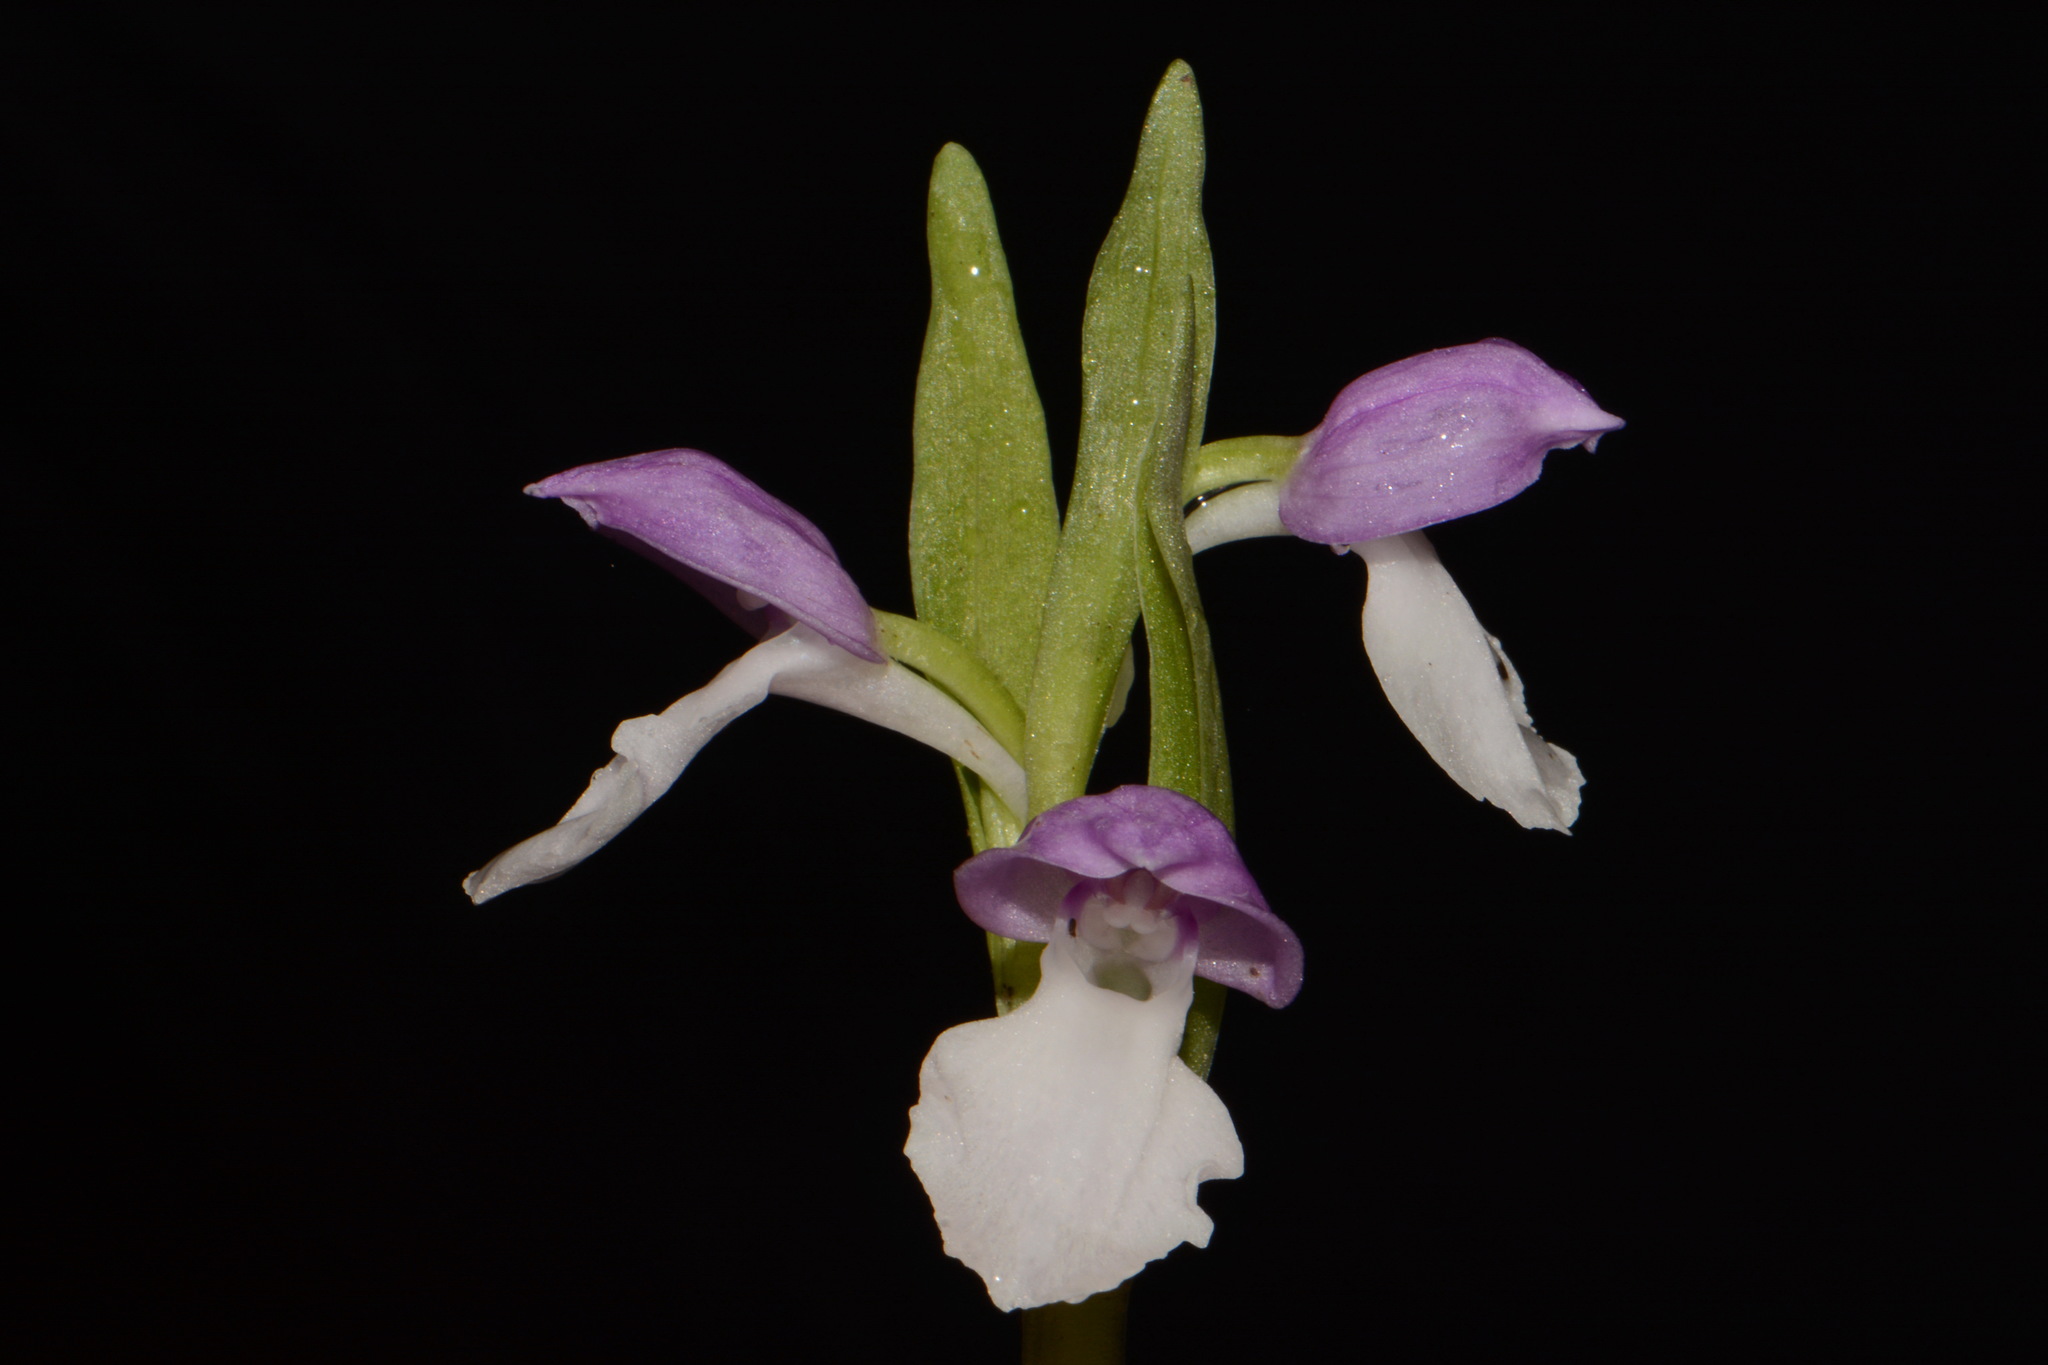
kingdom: Plantae
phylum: Tracheophyta
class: Liliopsida
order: Asparagales
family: Orchidaceae
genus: Galearis
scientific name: Galearis spectabilis
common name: Purple-hooded orchis
